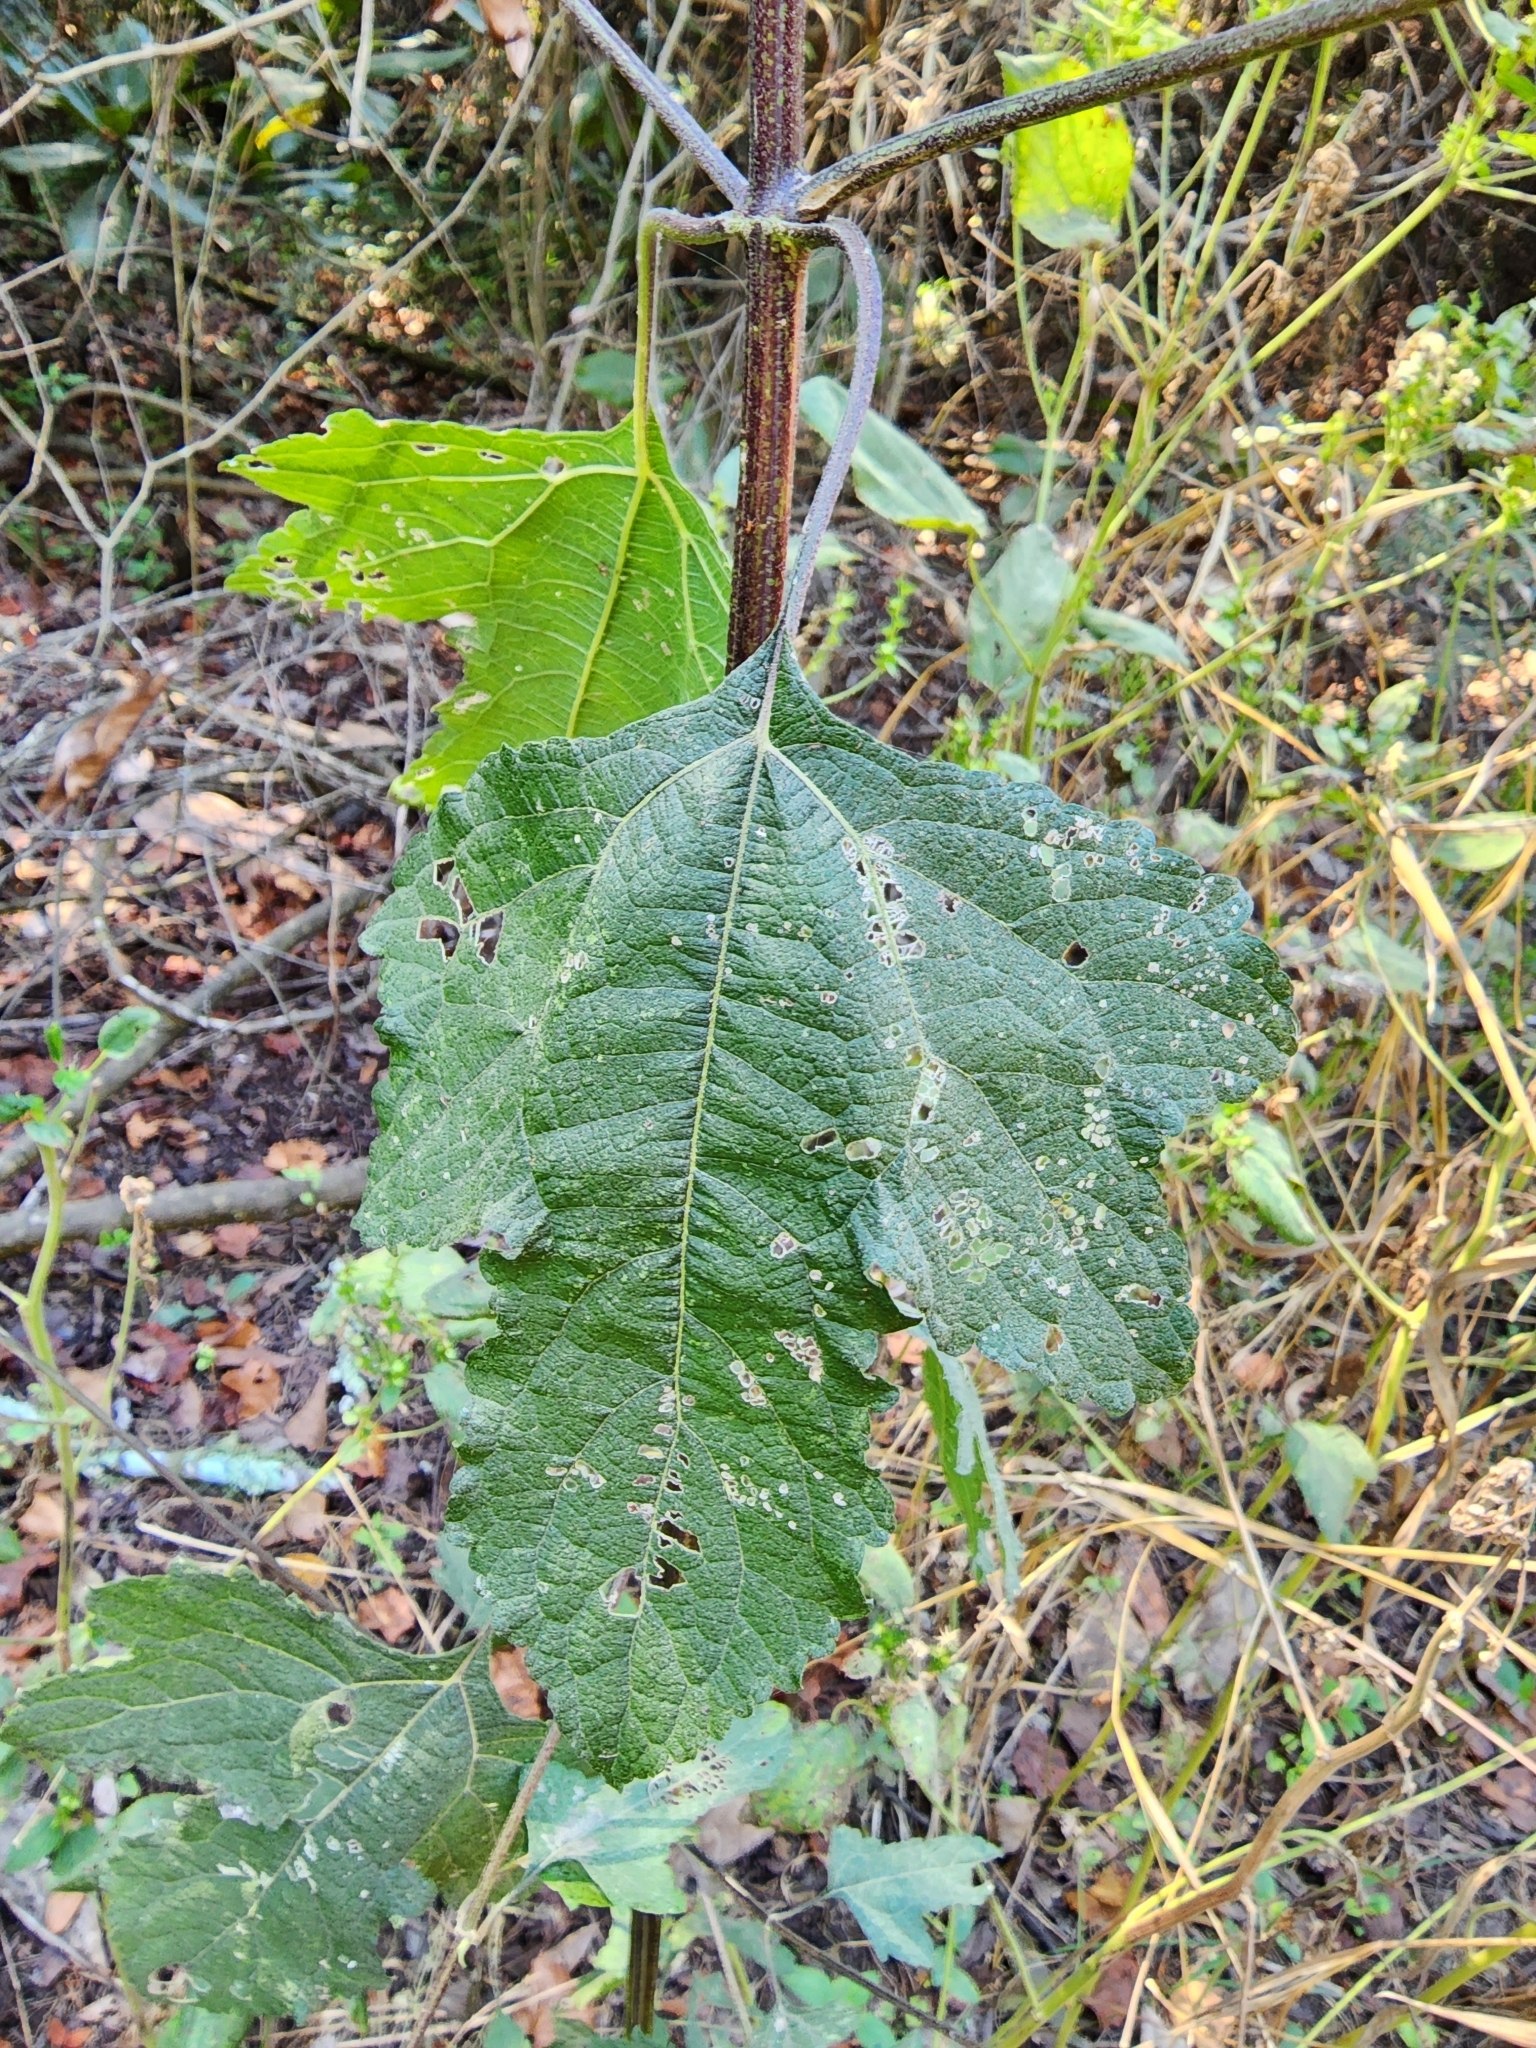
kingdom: Plantae
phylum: Tracheophyta
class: Magnoliopsida
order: Asterales
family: Asteraceae
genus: Melanthera
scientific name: Melanthera nivea
